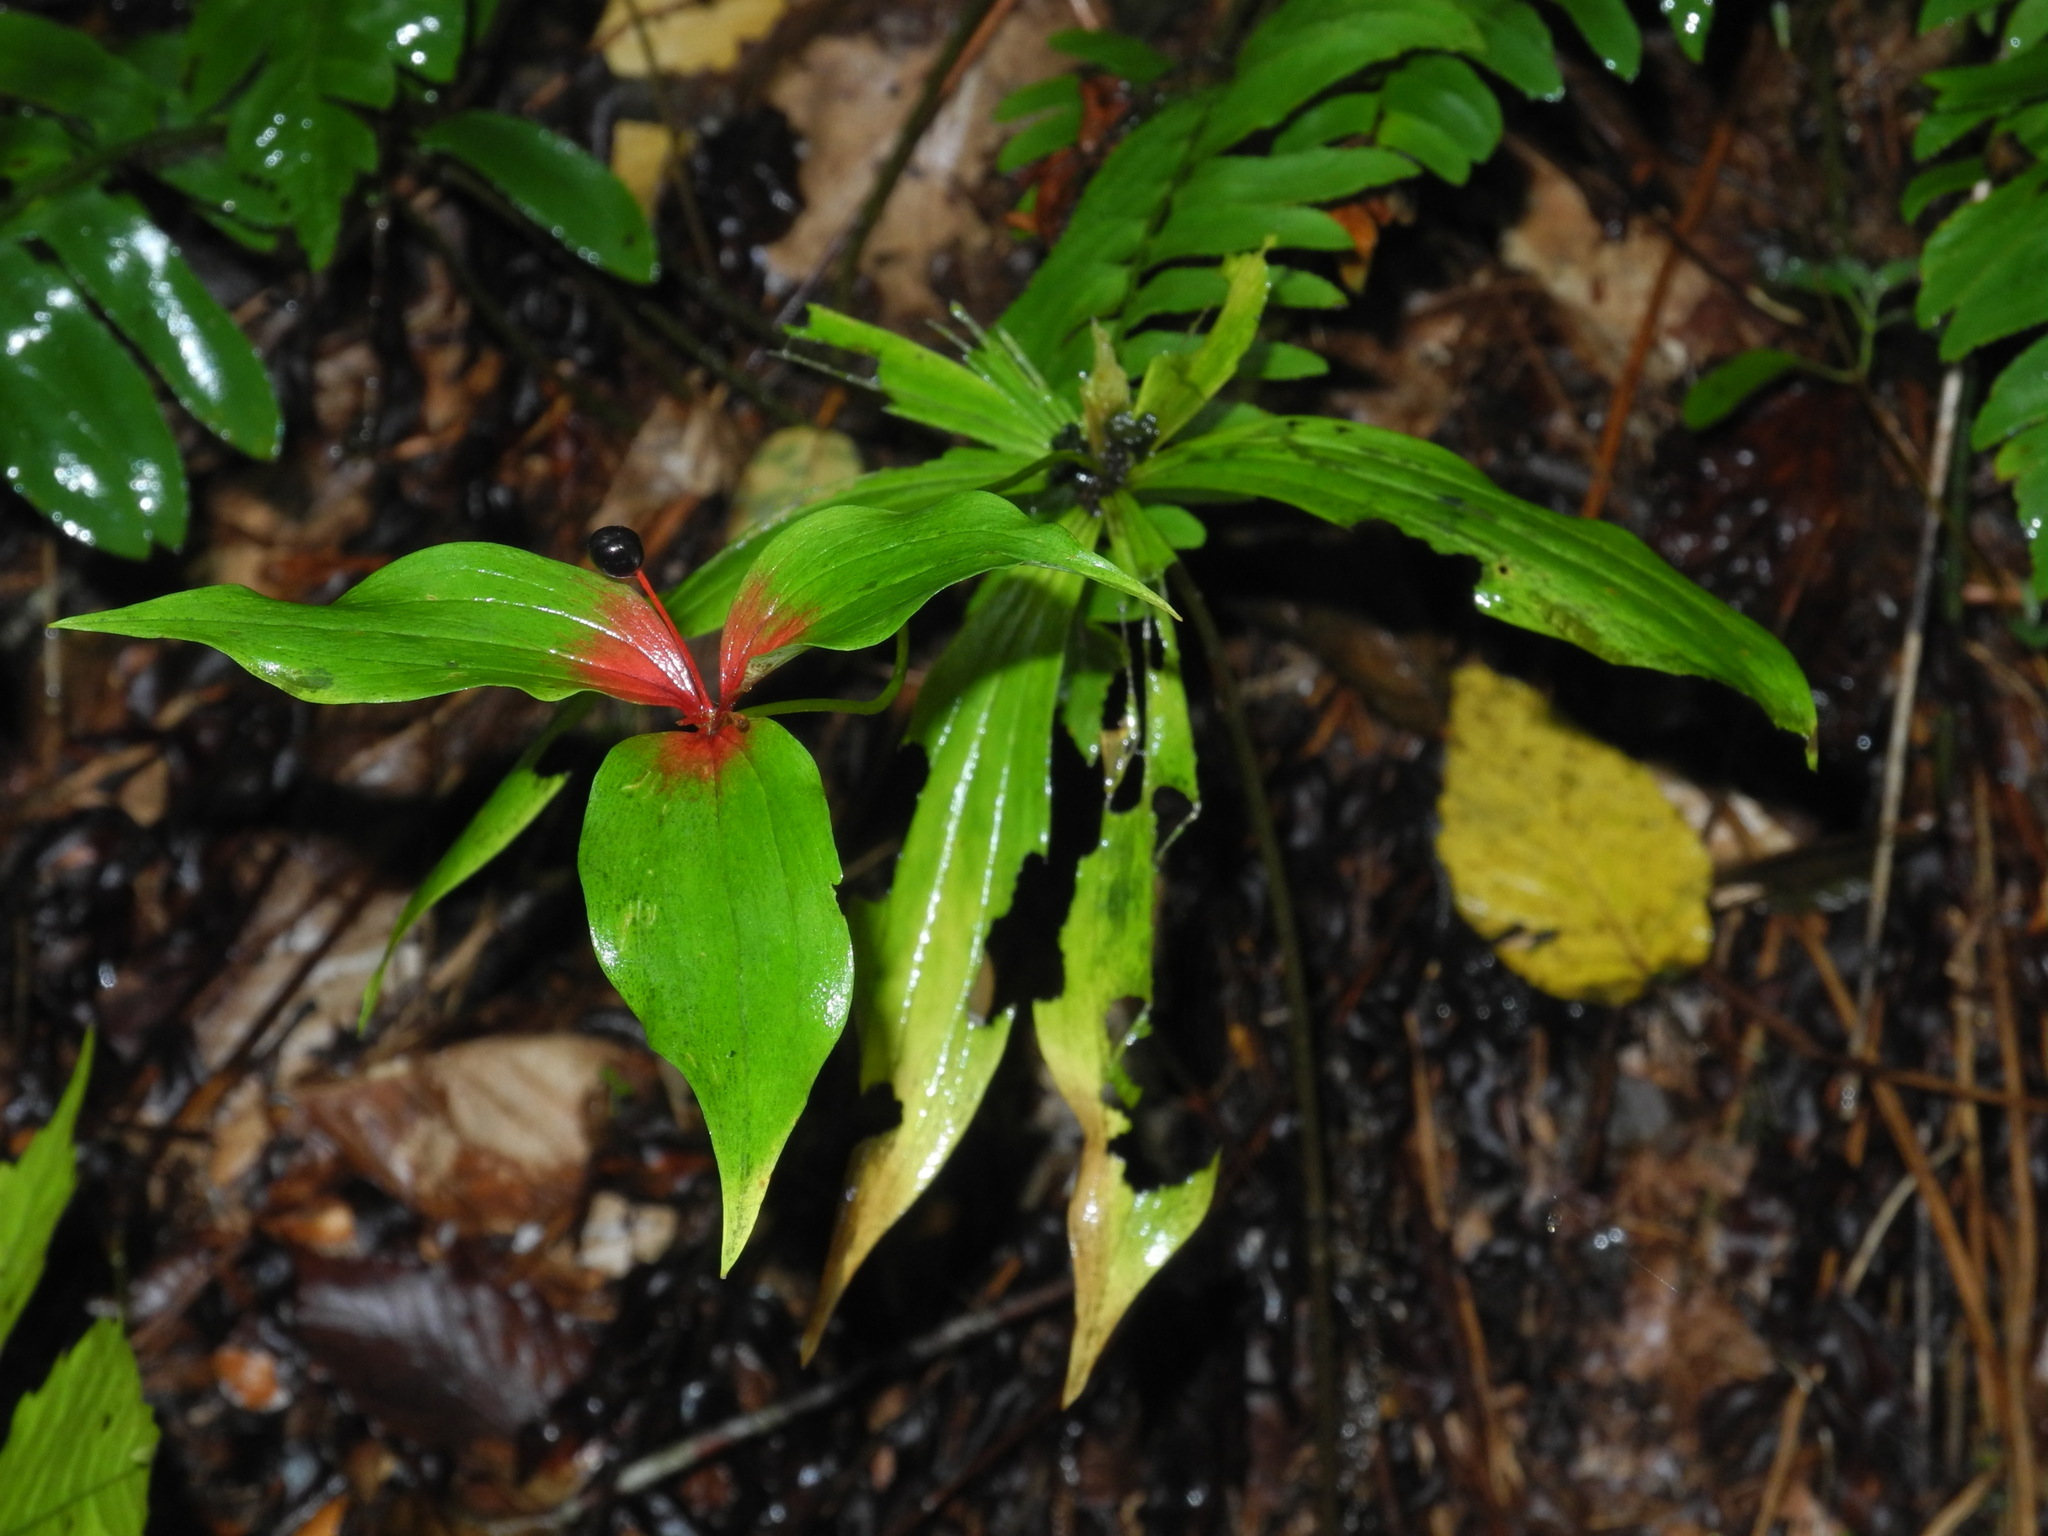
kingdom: Plantae
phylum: Tracheophyta
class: Liliopsida
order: Liliales
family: Liliaceae
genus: Medeola
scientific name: Medeola virginiana
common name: Indian cucumber-root
